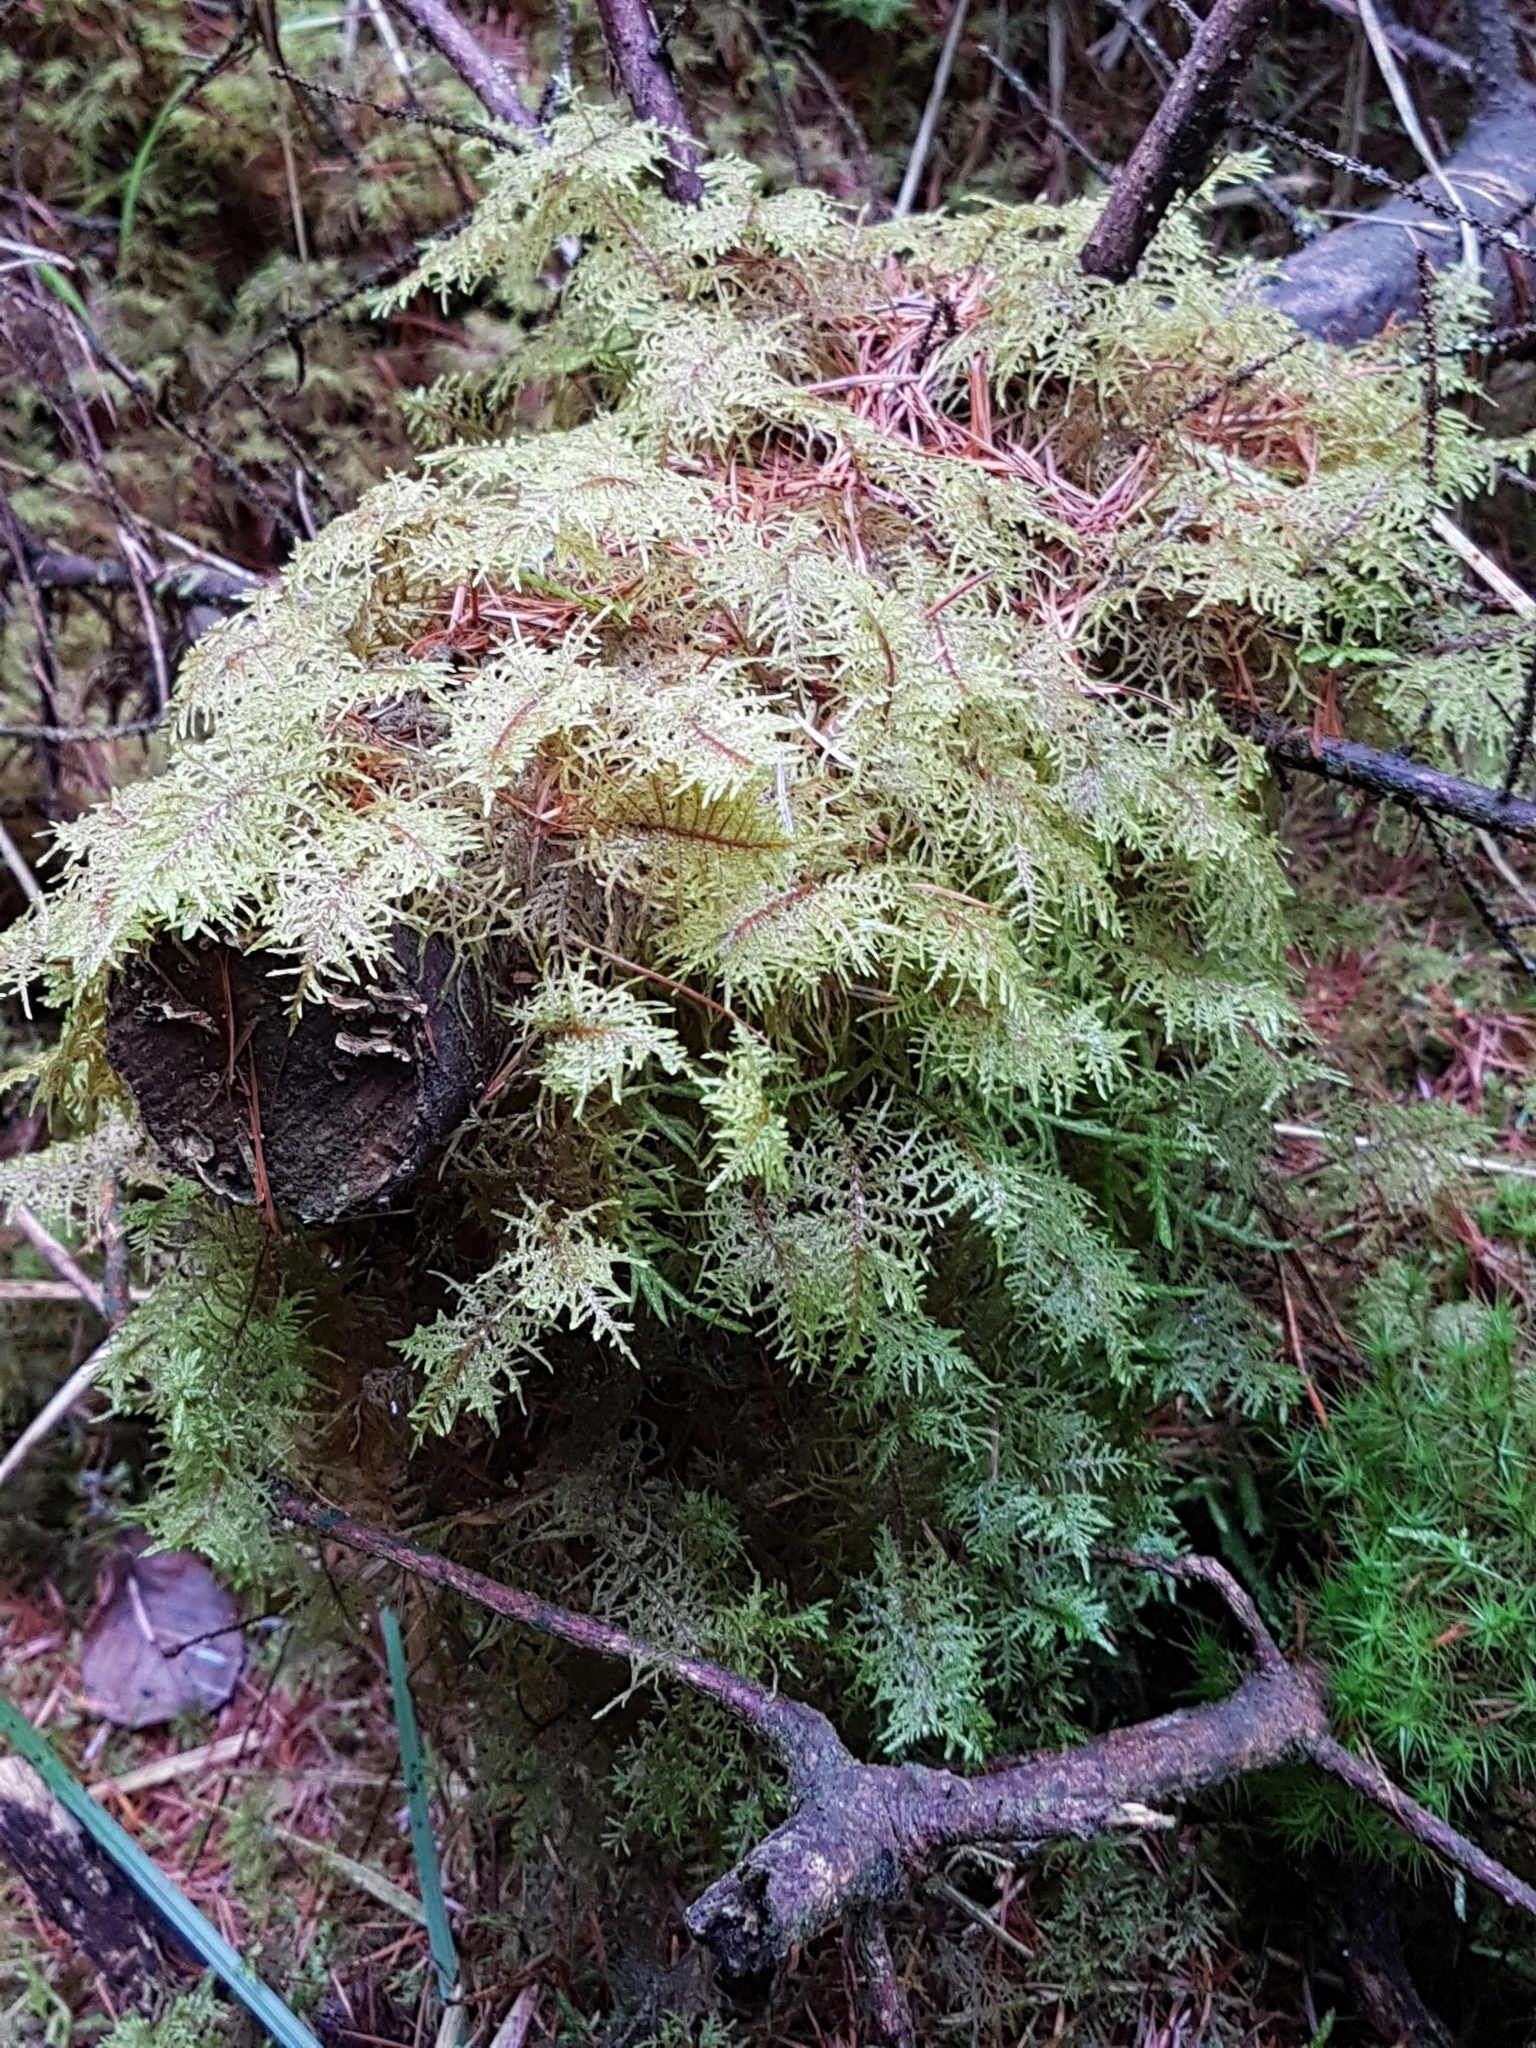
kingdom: Plantae
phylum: Bryophyta
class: Bryopsida
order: Hypnales
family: Hylocomiaceae
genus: Hylocomium
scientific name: Hylocomium splendens
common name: Stairstep moss
